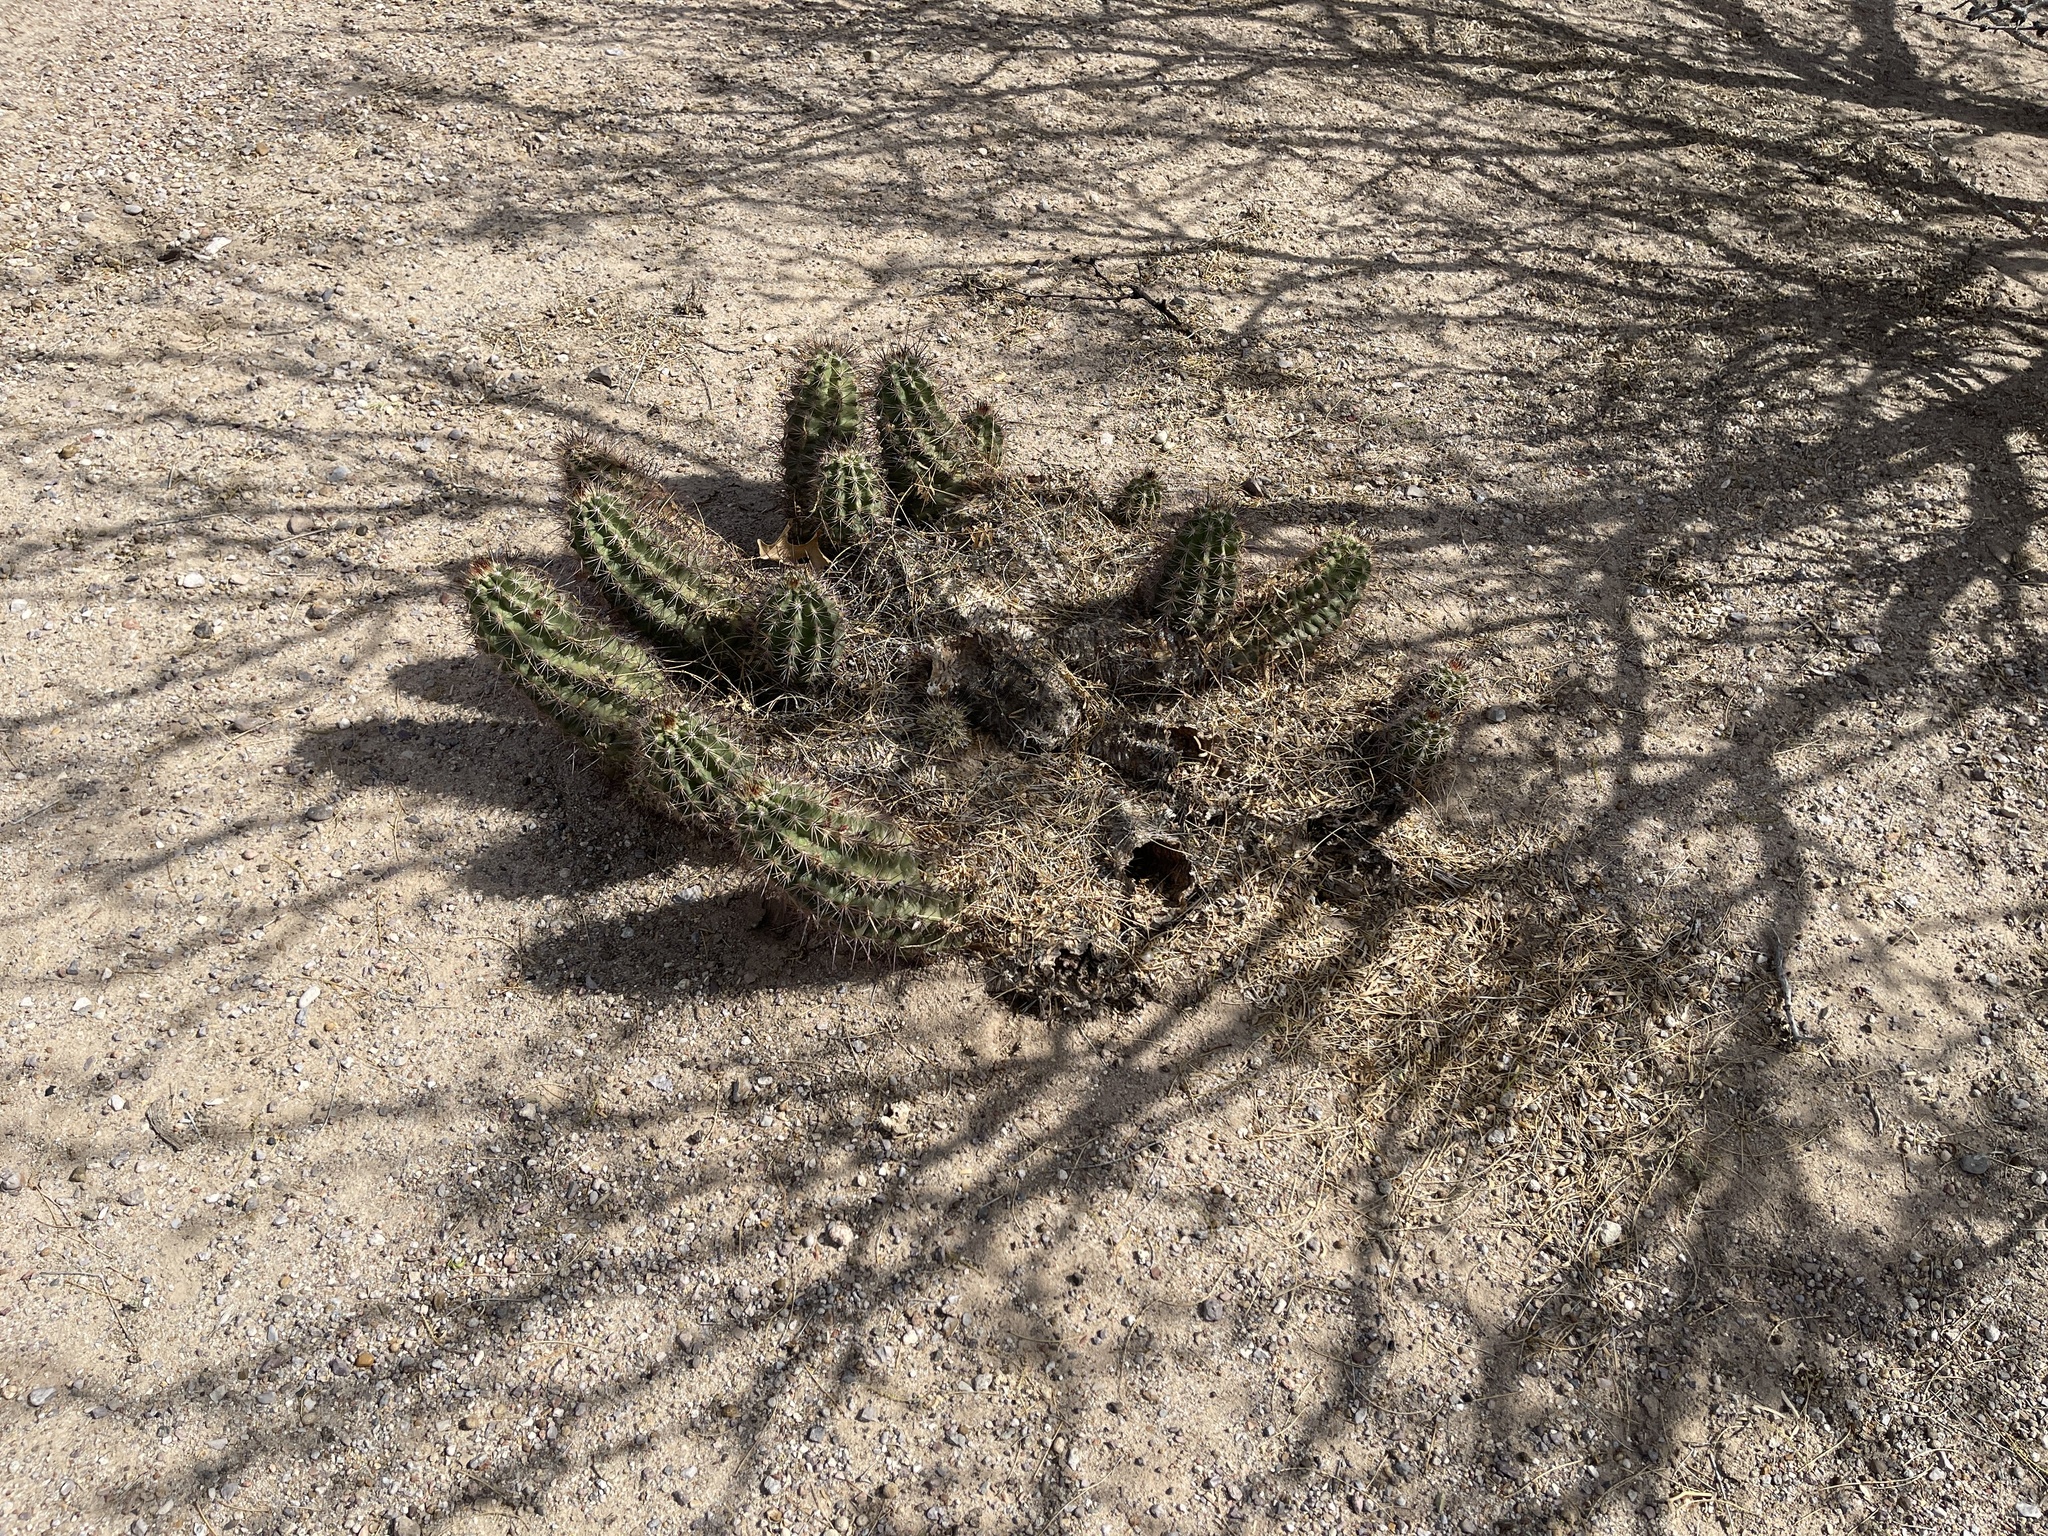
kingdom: Plantae
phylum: Tracheophyta
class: Magnoliopsida
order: Caryophyllales
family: Cactaceae
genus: Echinocereus
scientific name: Echinocereus coccineus
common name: Scarlet hedgehog cactus
